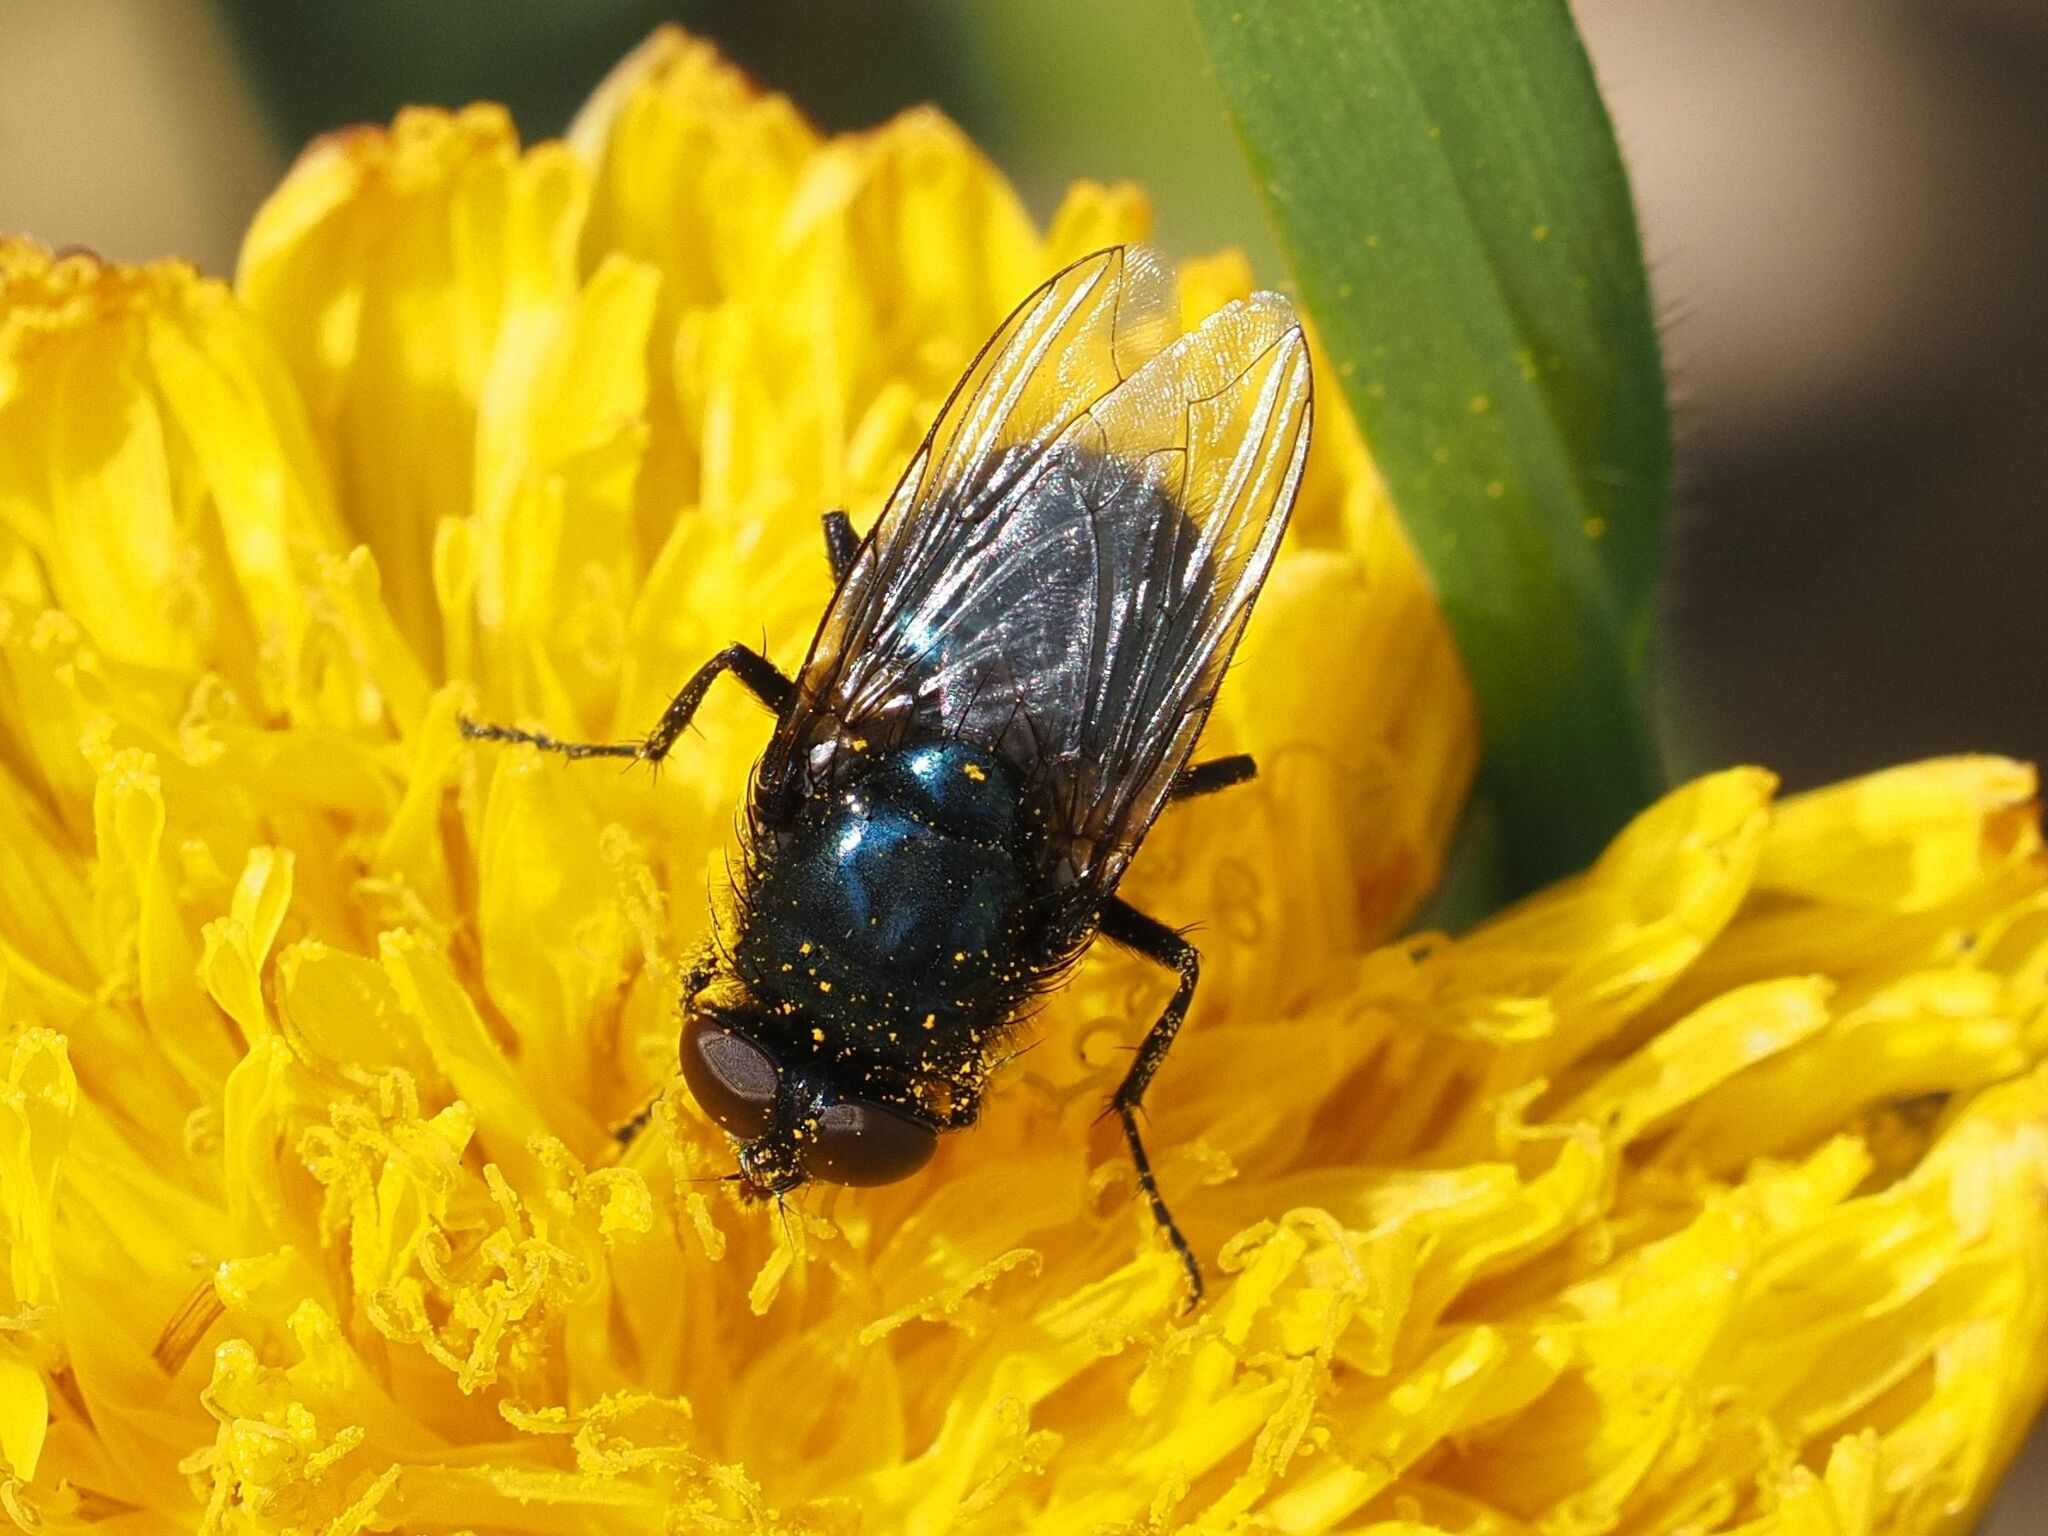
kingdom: Animalia
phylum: Arthropoda
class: Insecta
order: Diptera
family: Calliphoridae
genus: Protophormia
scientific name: Protophormia terraenovae
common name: Blackbottle
